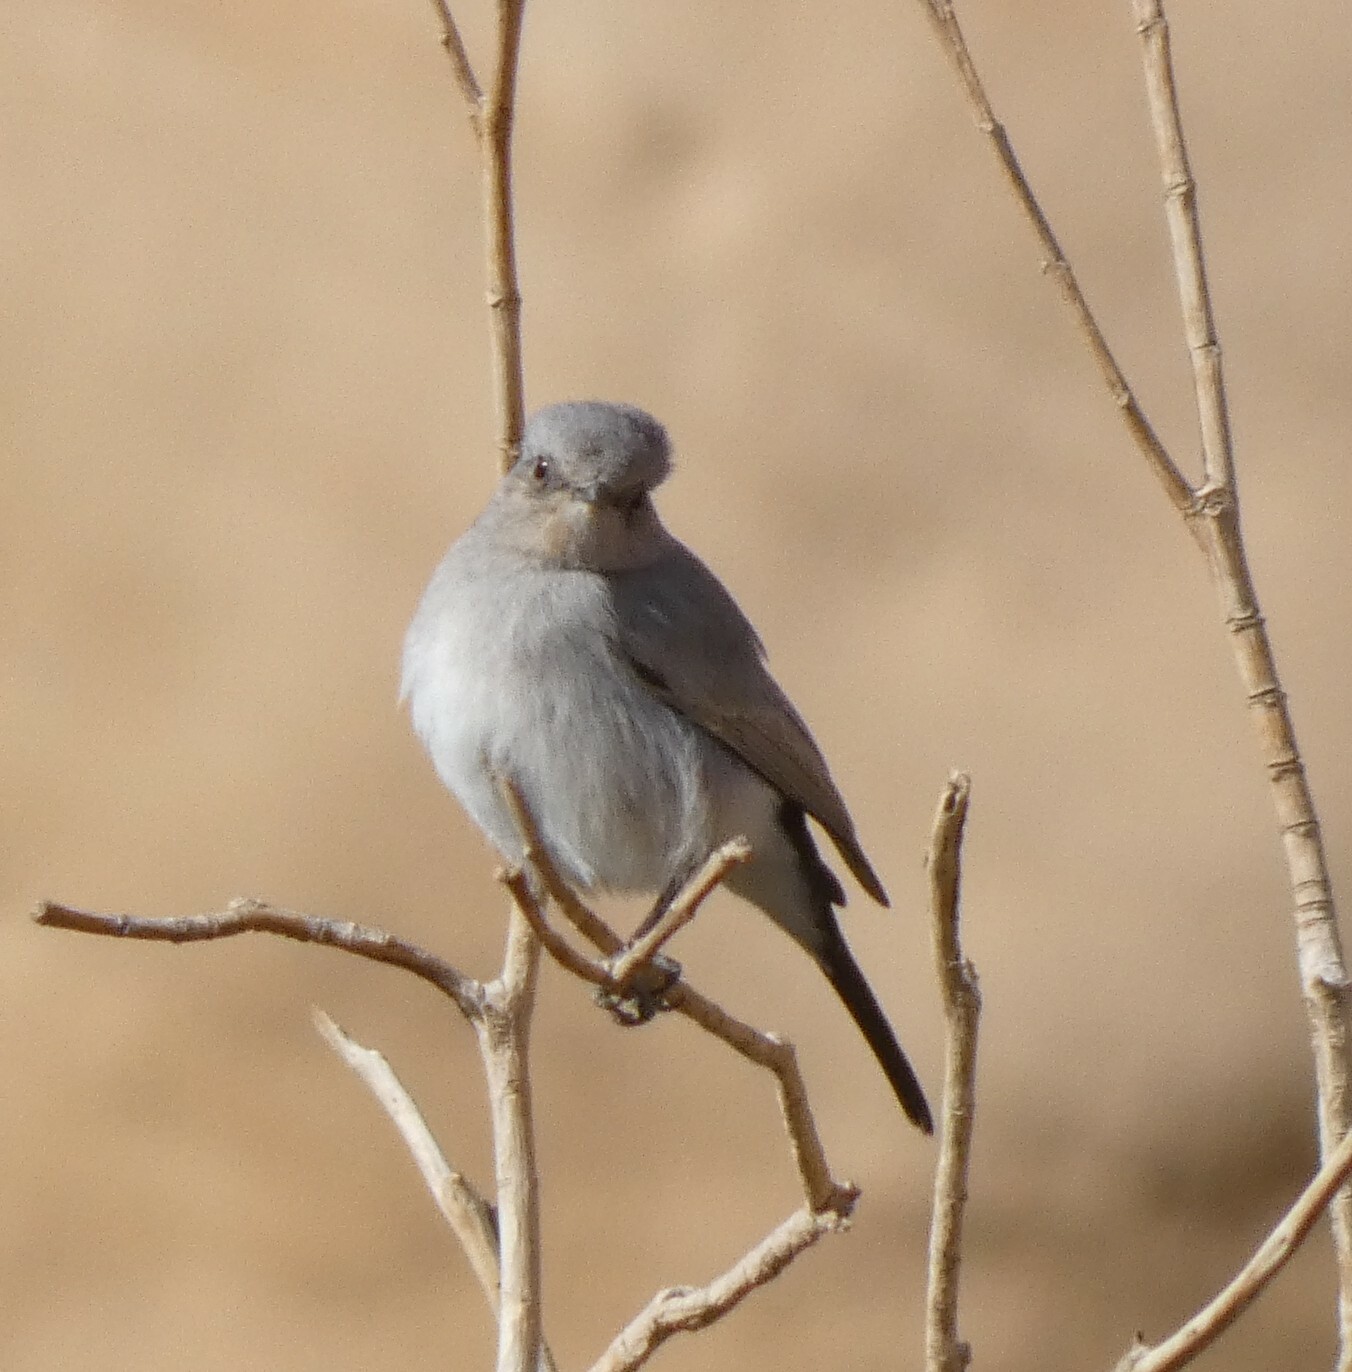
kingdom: Animalia
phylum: Chordata
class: Aves
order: Passeriformes
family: Muscicapidae
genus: Oenanthe
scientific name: Oenanthe melanura
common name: Blackstart
